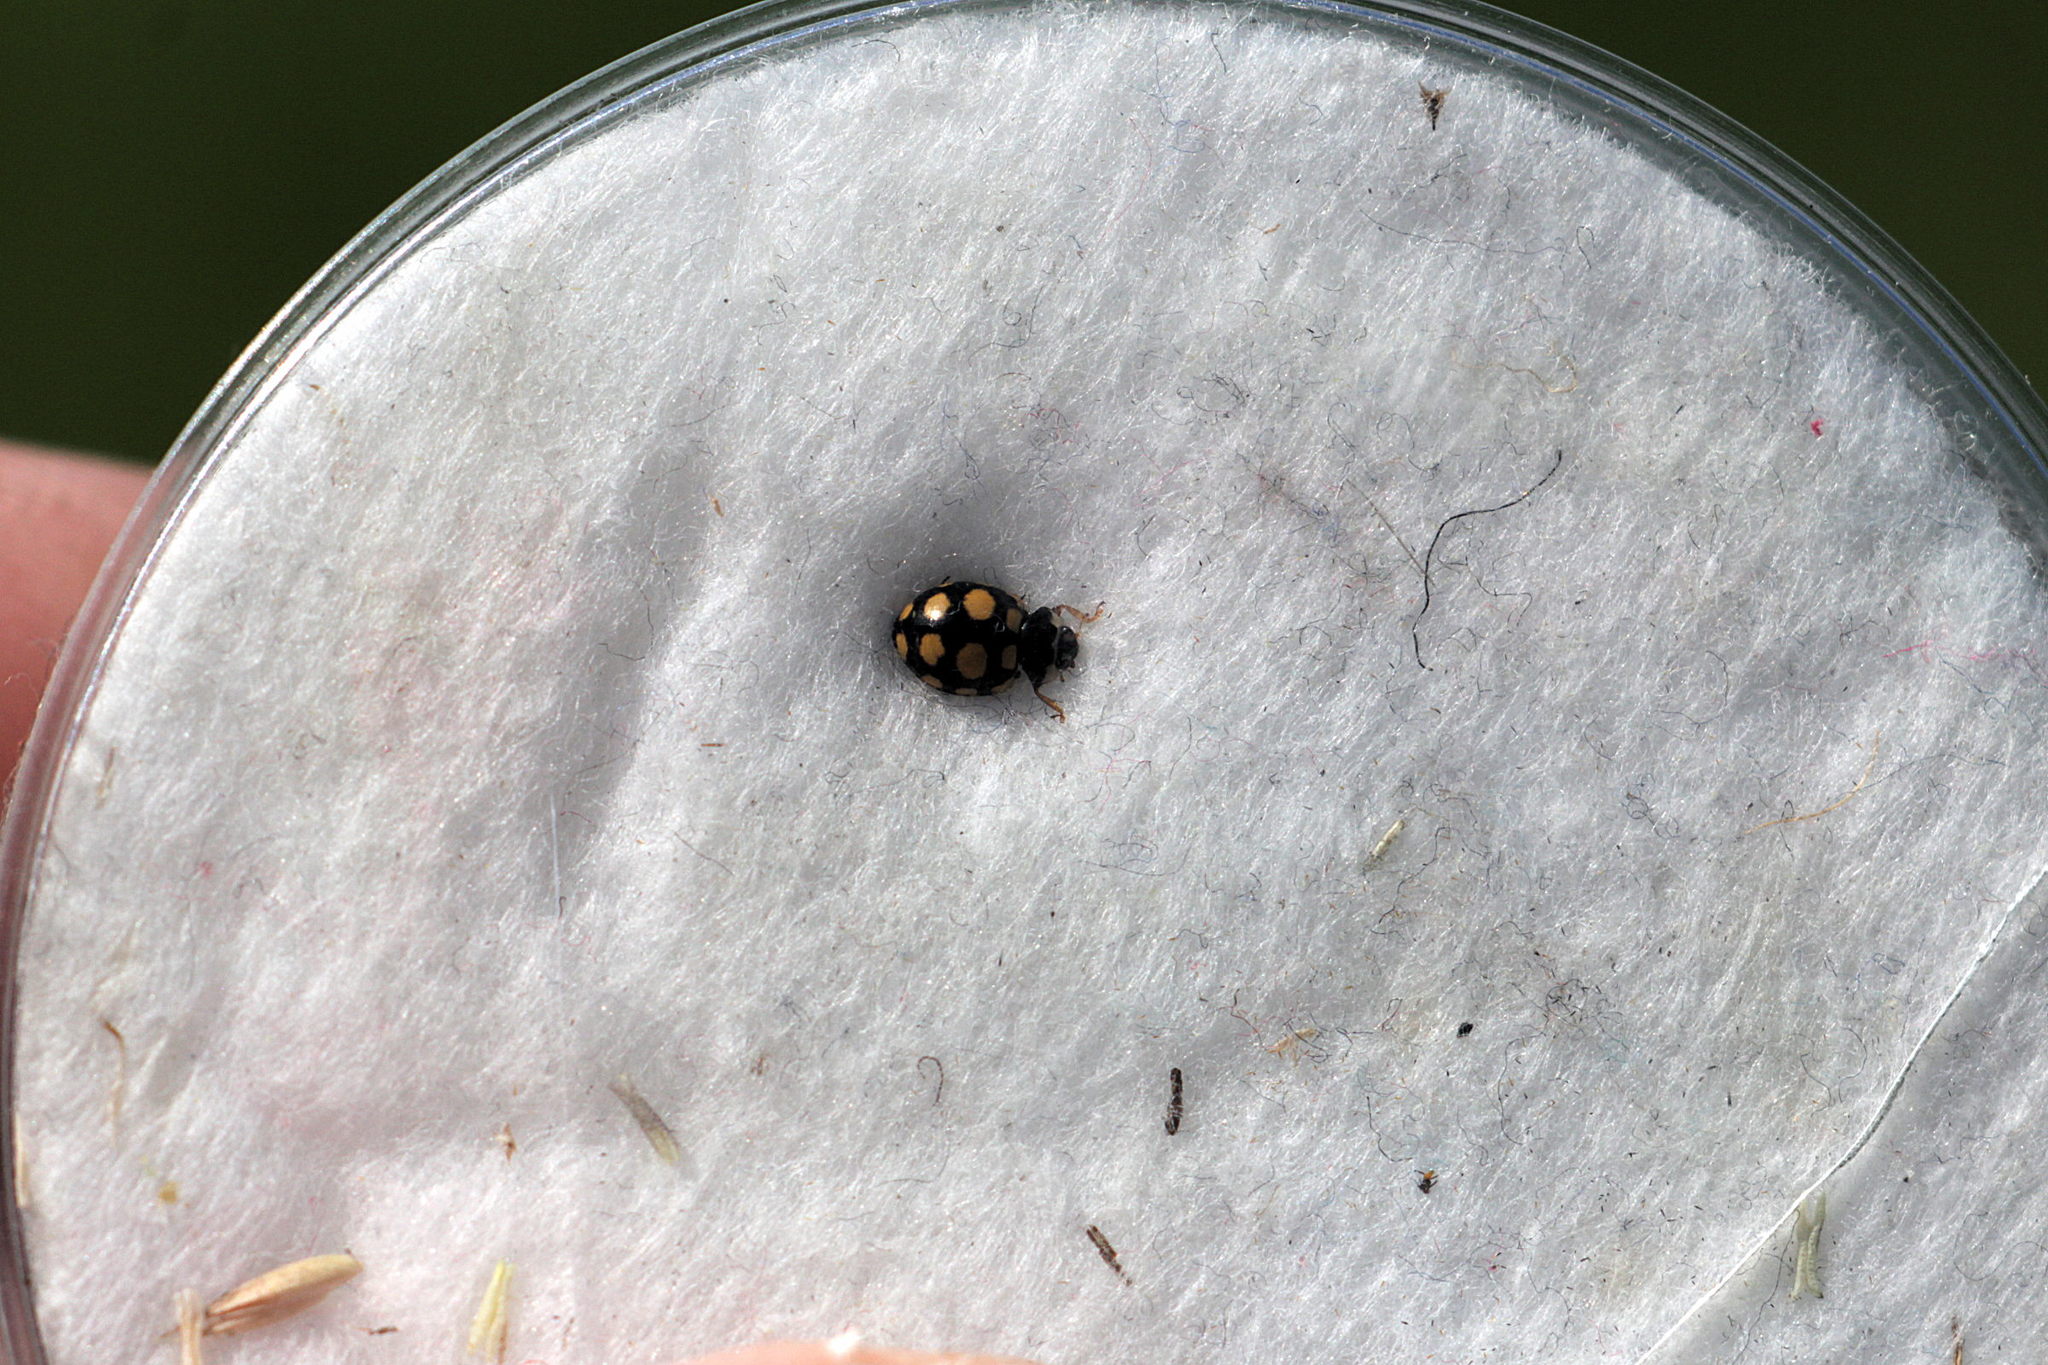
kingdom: Animalia
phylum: Arthropoda
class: Insecta
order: Coleoptera
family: Coccinellidae
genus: Coccinula
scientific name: Coccinula quatuordecimpustulata
